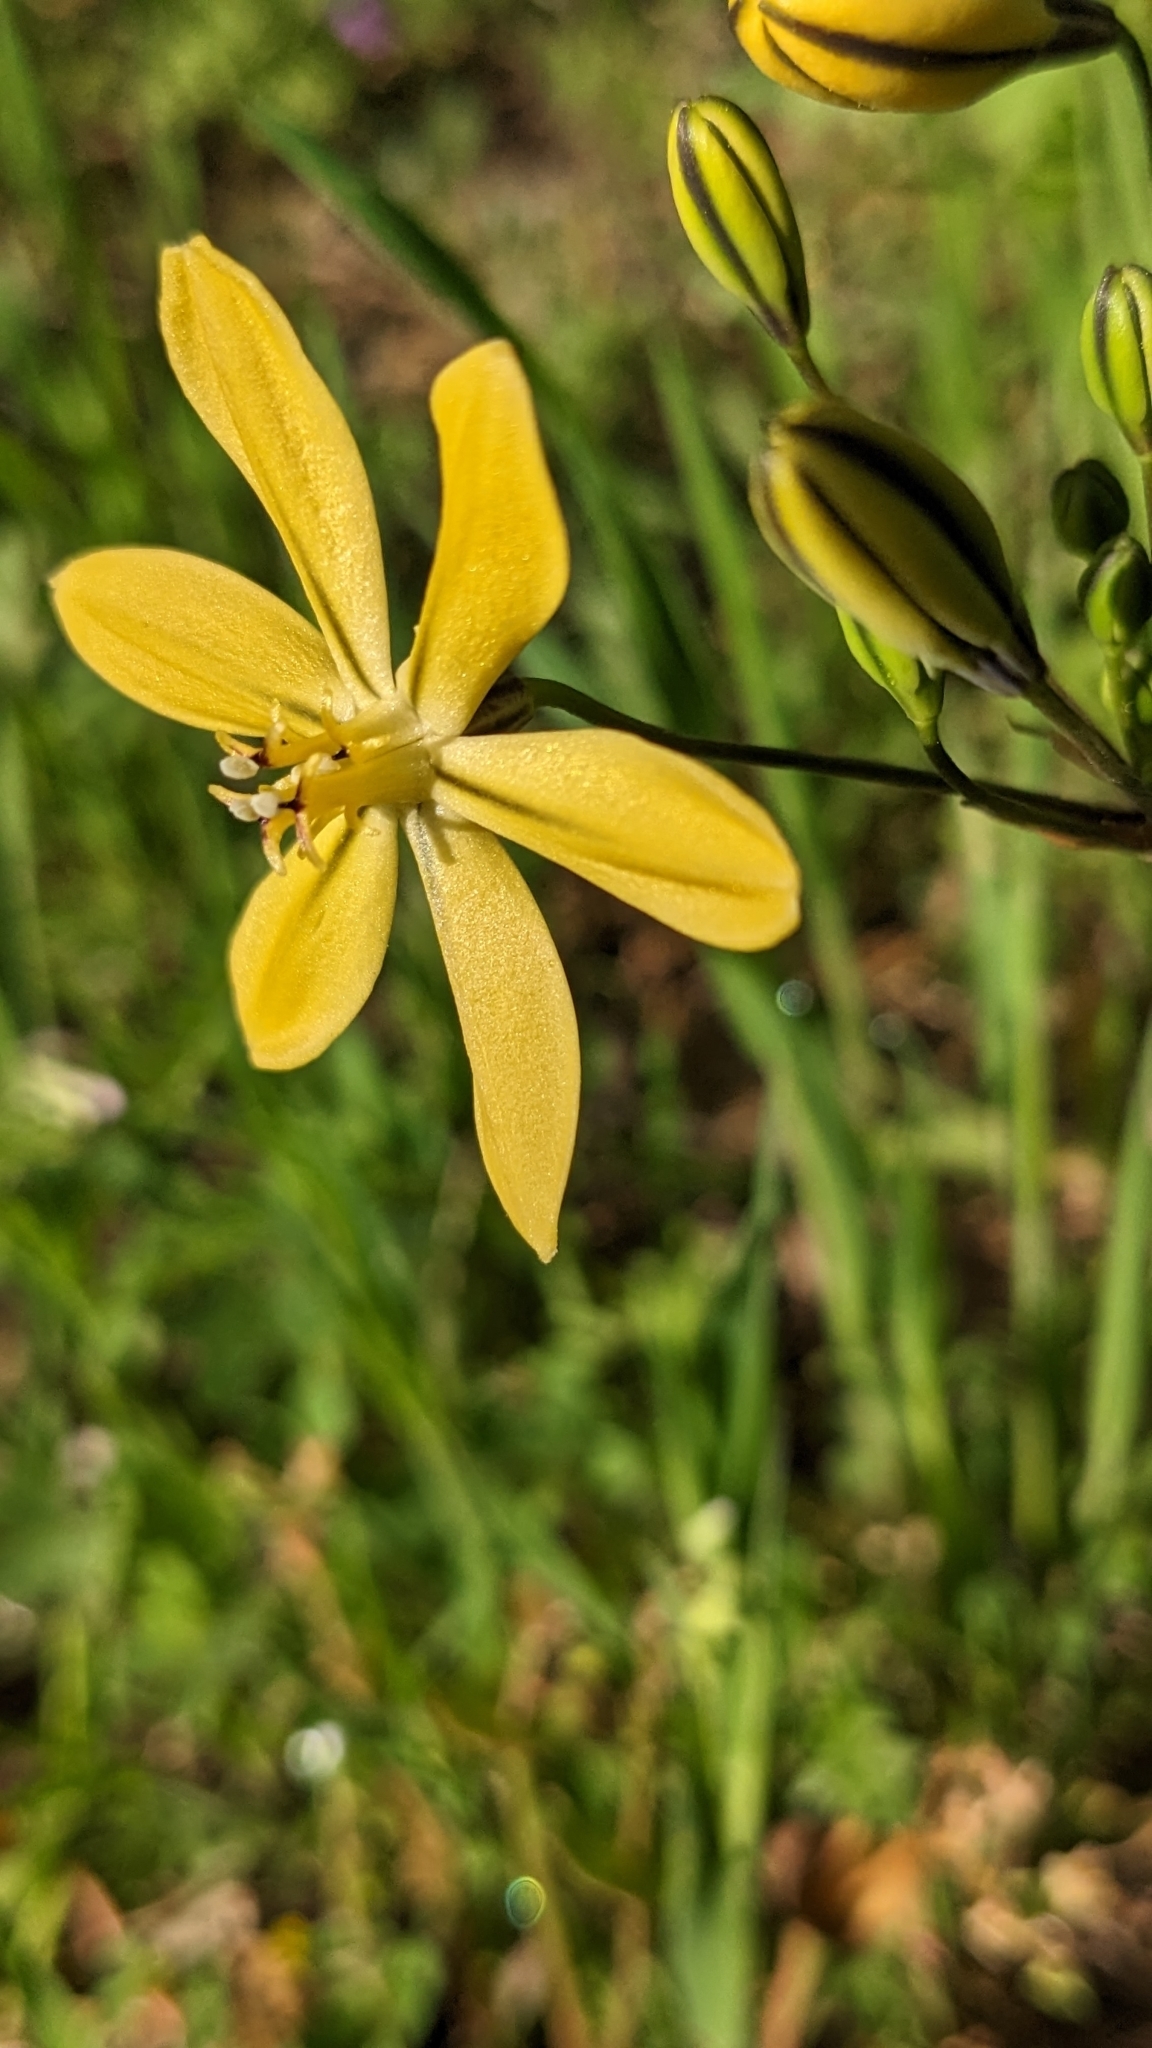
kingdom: Plantae
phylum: Tracheophyta
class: Liliopsida
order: Asparagales
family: Asparagaceae
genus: Triteleia
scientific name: Triteleia ixioides
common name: Yellow-brodiaea
